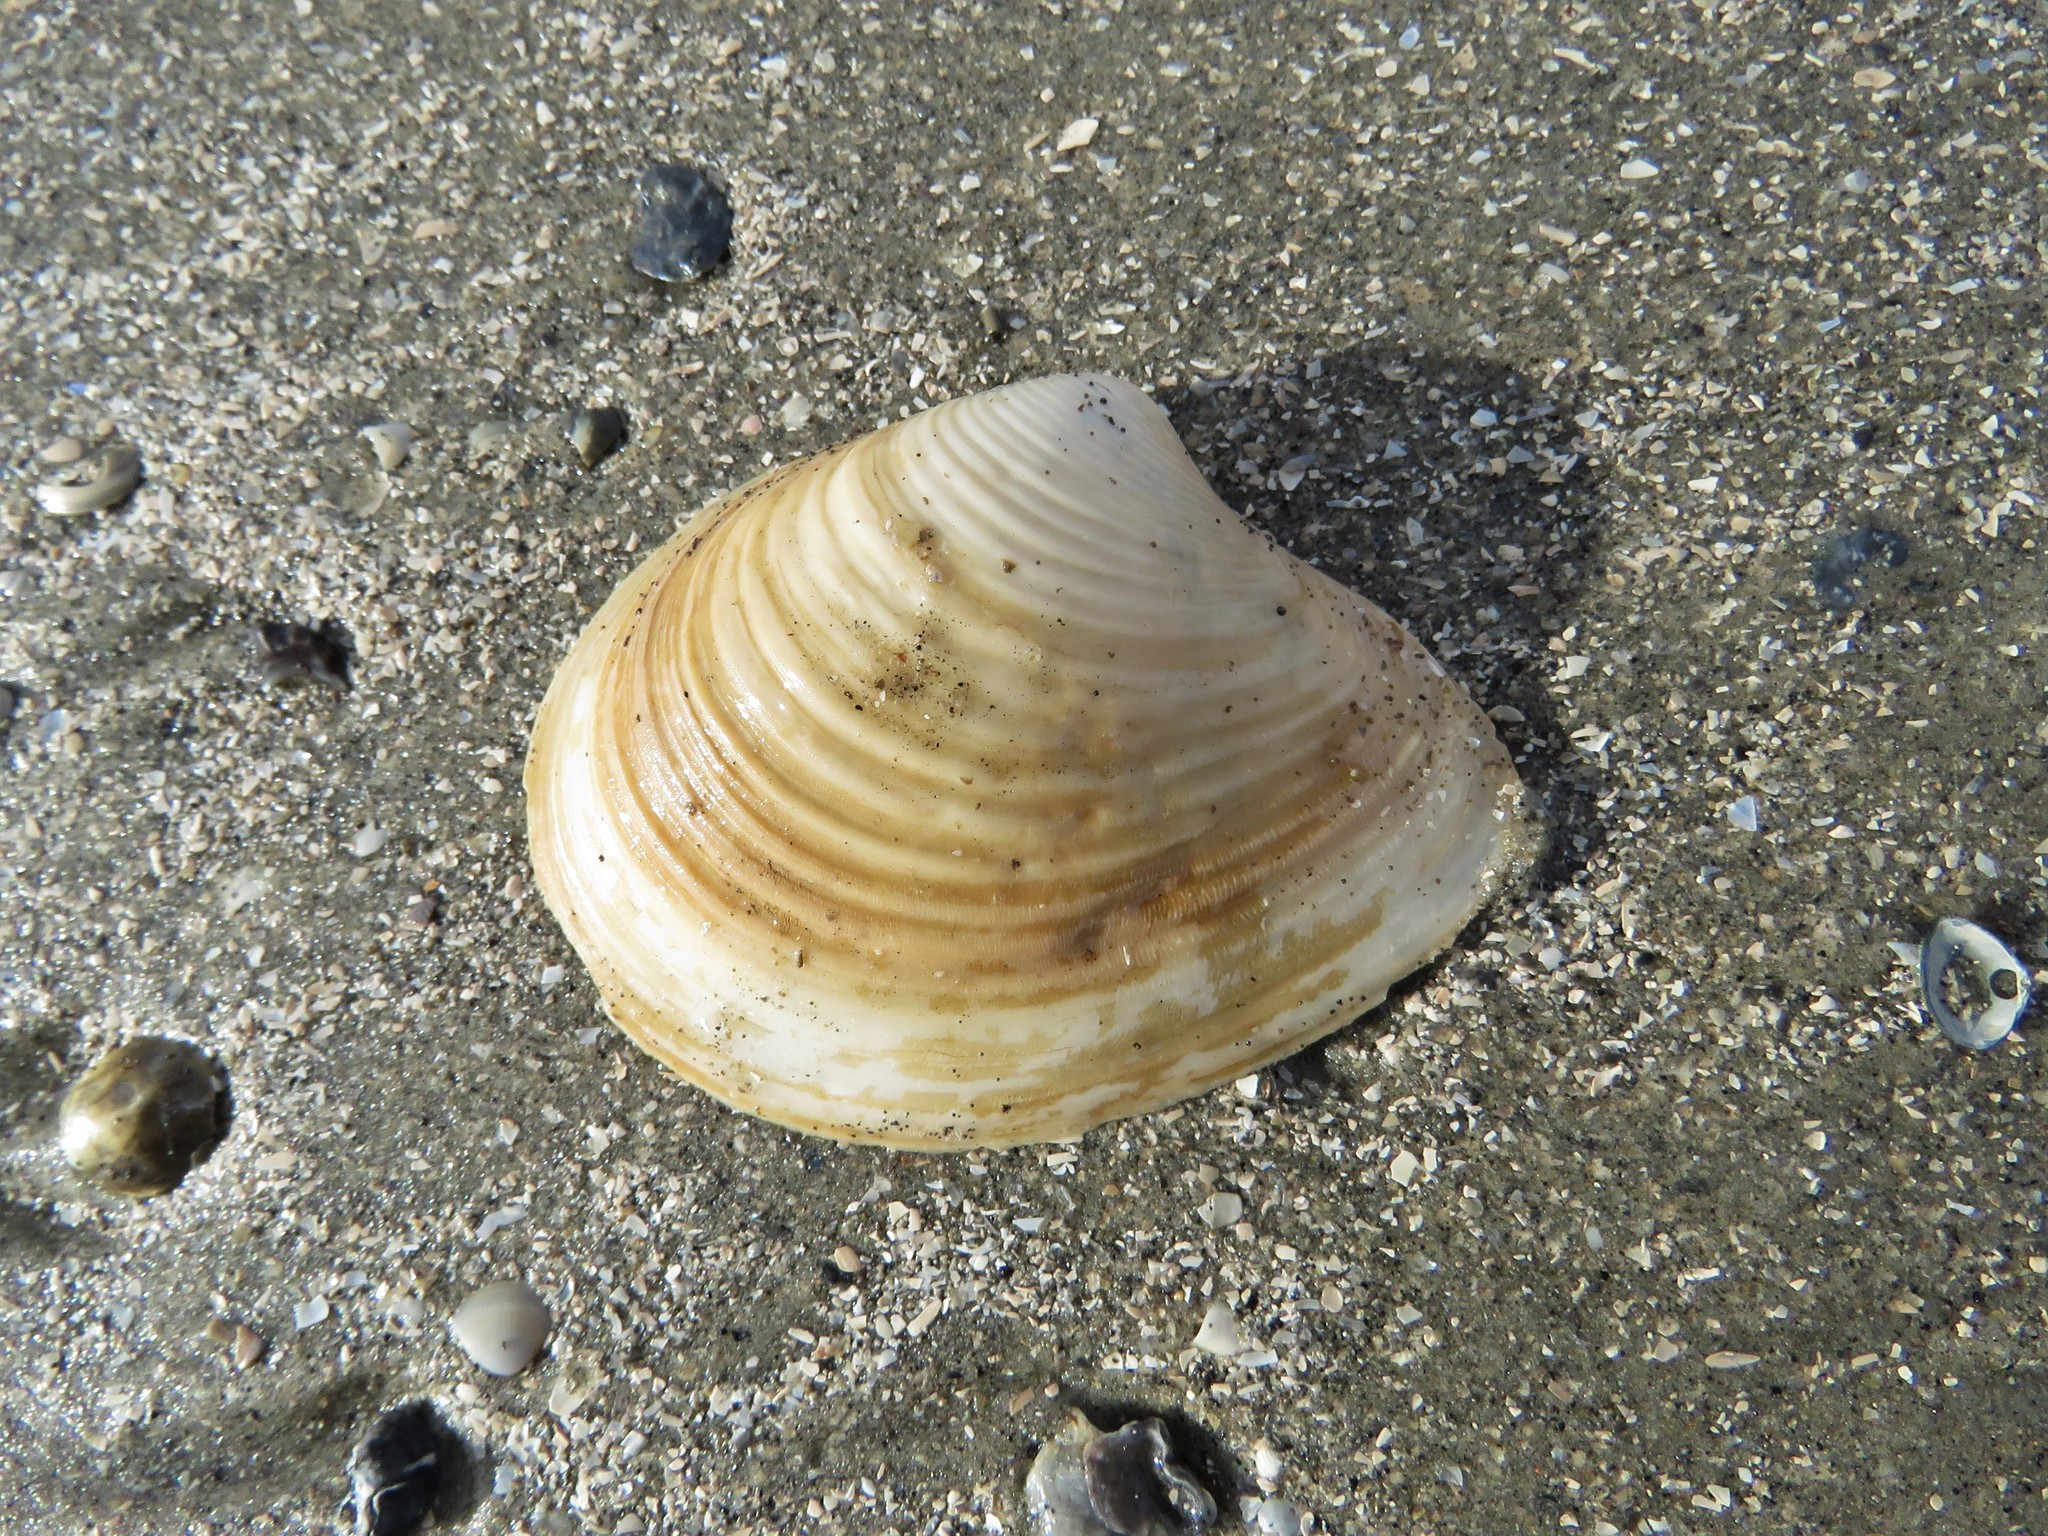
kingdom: Animalia
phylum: Mollusca
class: Bivalvia
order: Venerida
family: Anatinellidae
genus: Raeta
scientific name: Raeta plicatella
